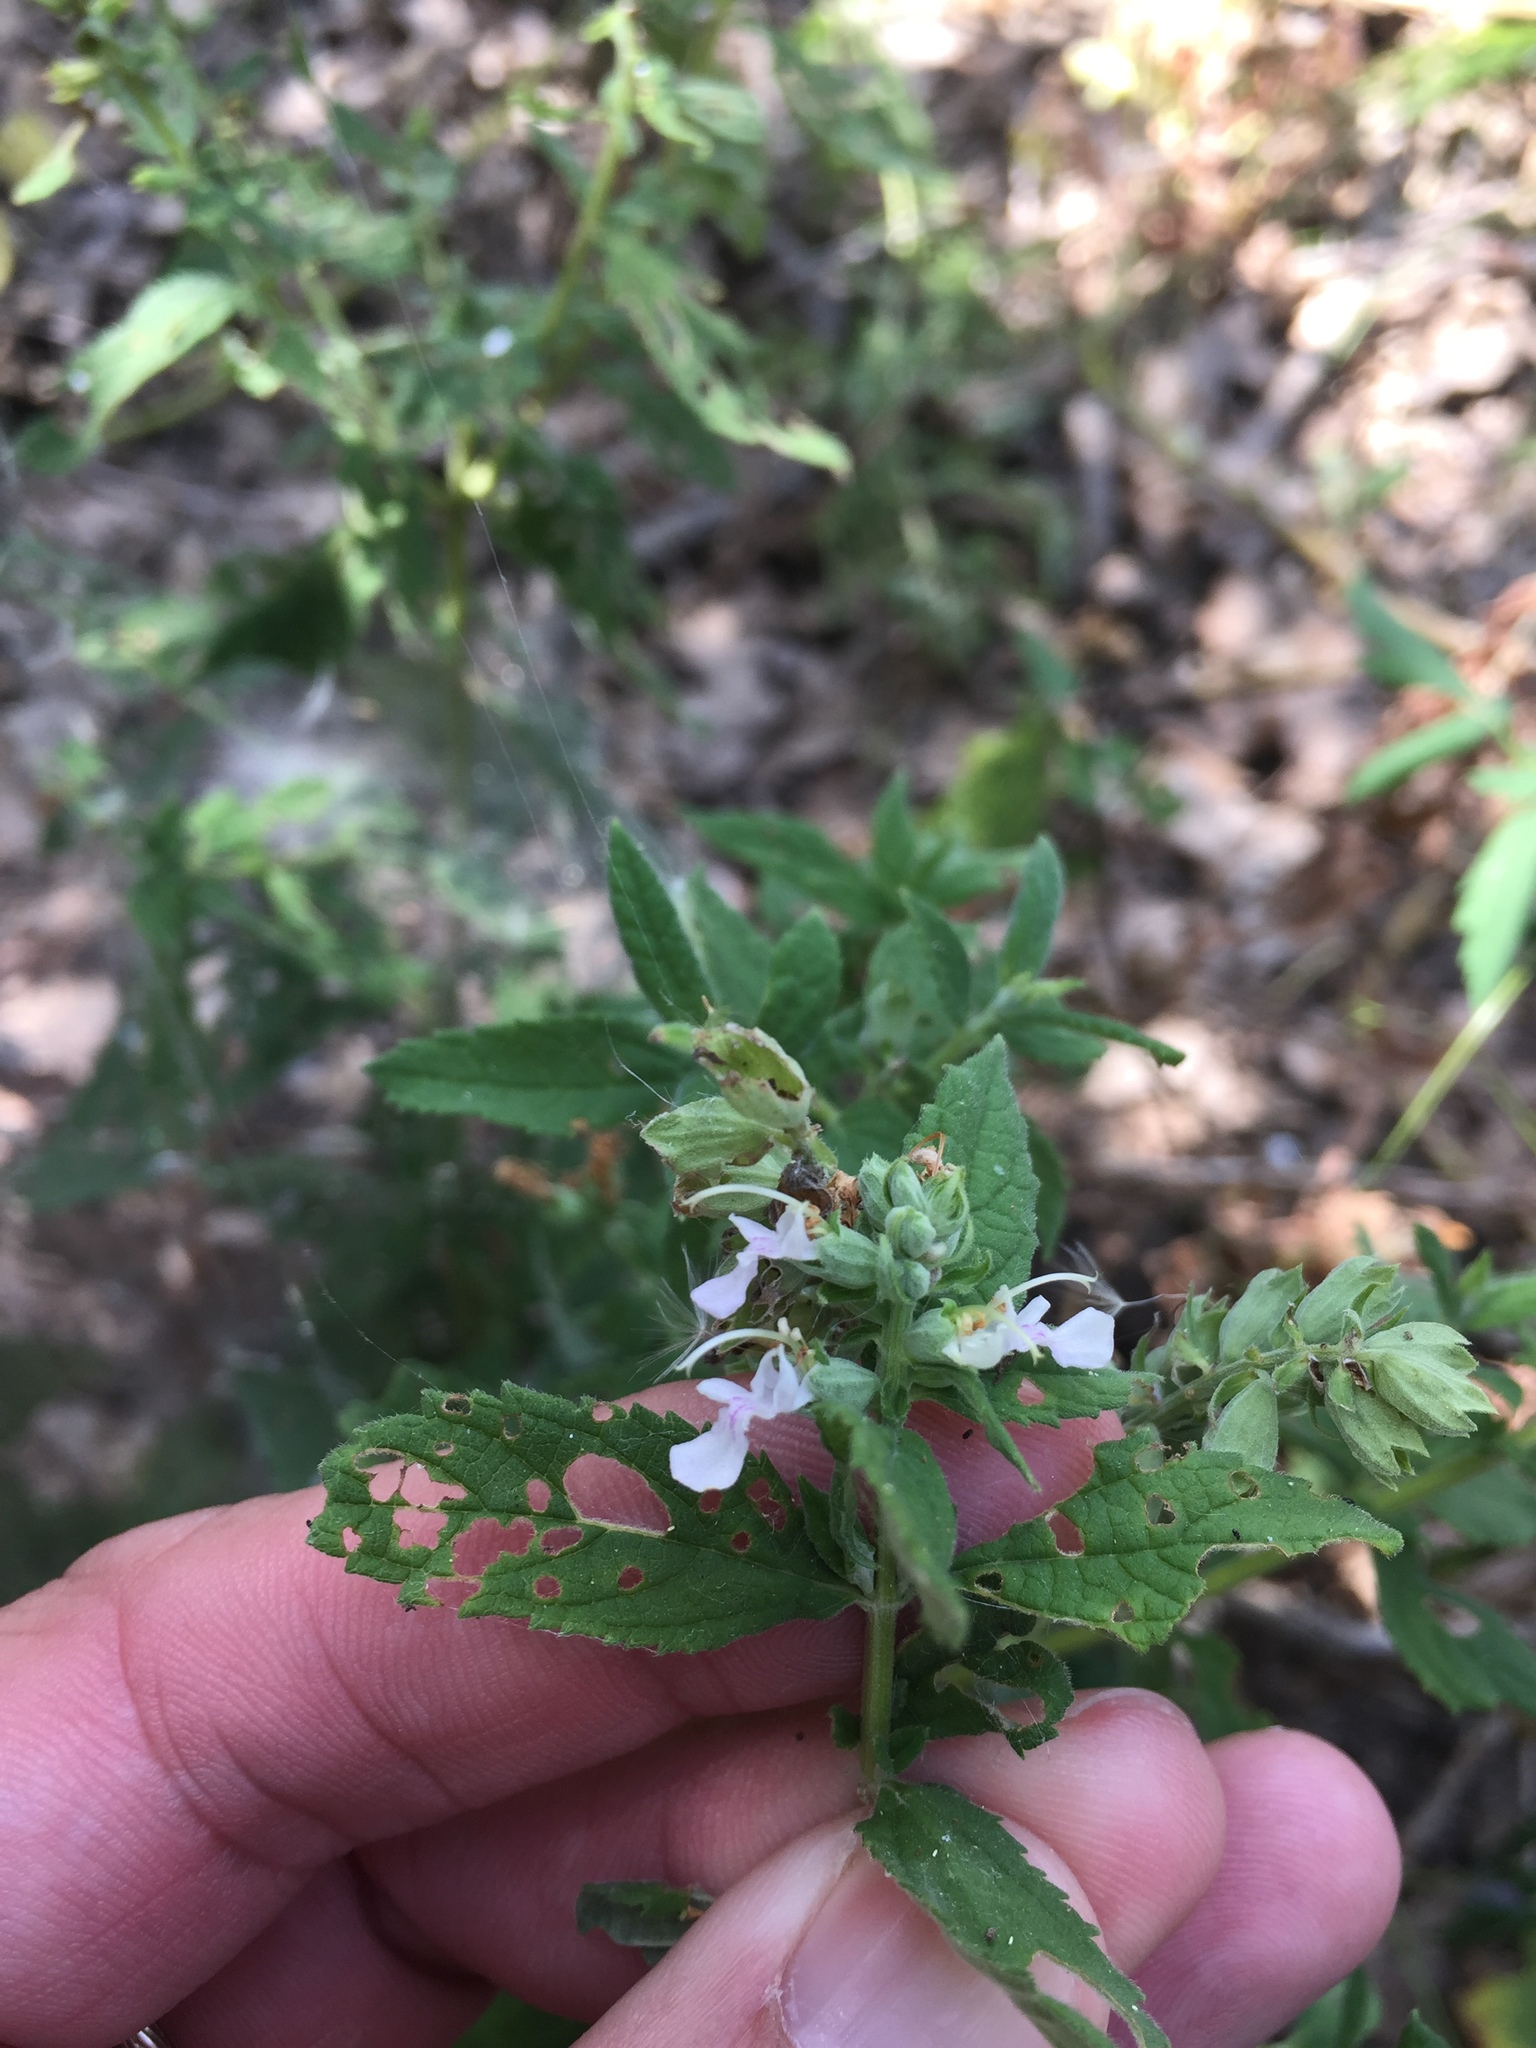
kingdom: Plantae
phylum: Tracheophyta
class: Magnoliopsida
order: Lamiales
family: Lamiaceae
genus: Teucrium
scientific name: Teucrium canadense
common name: American germander
